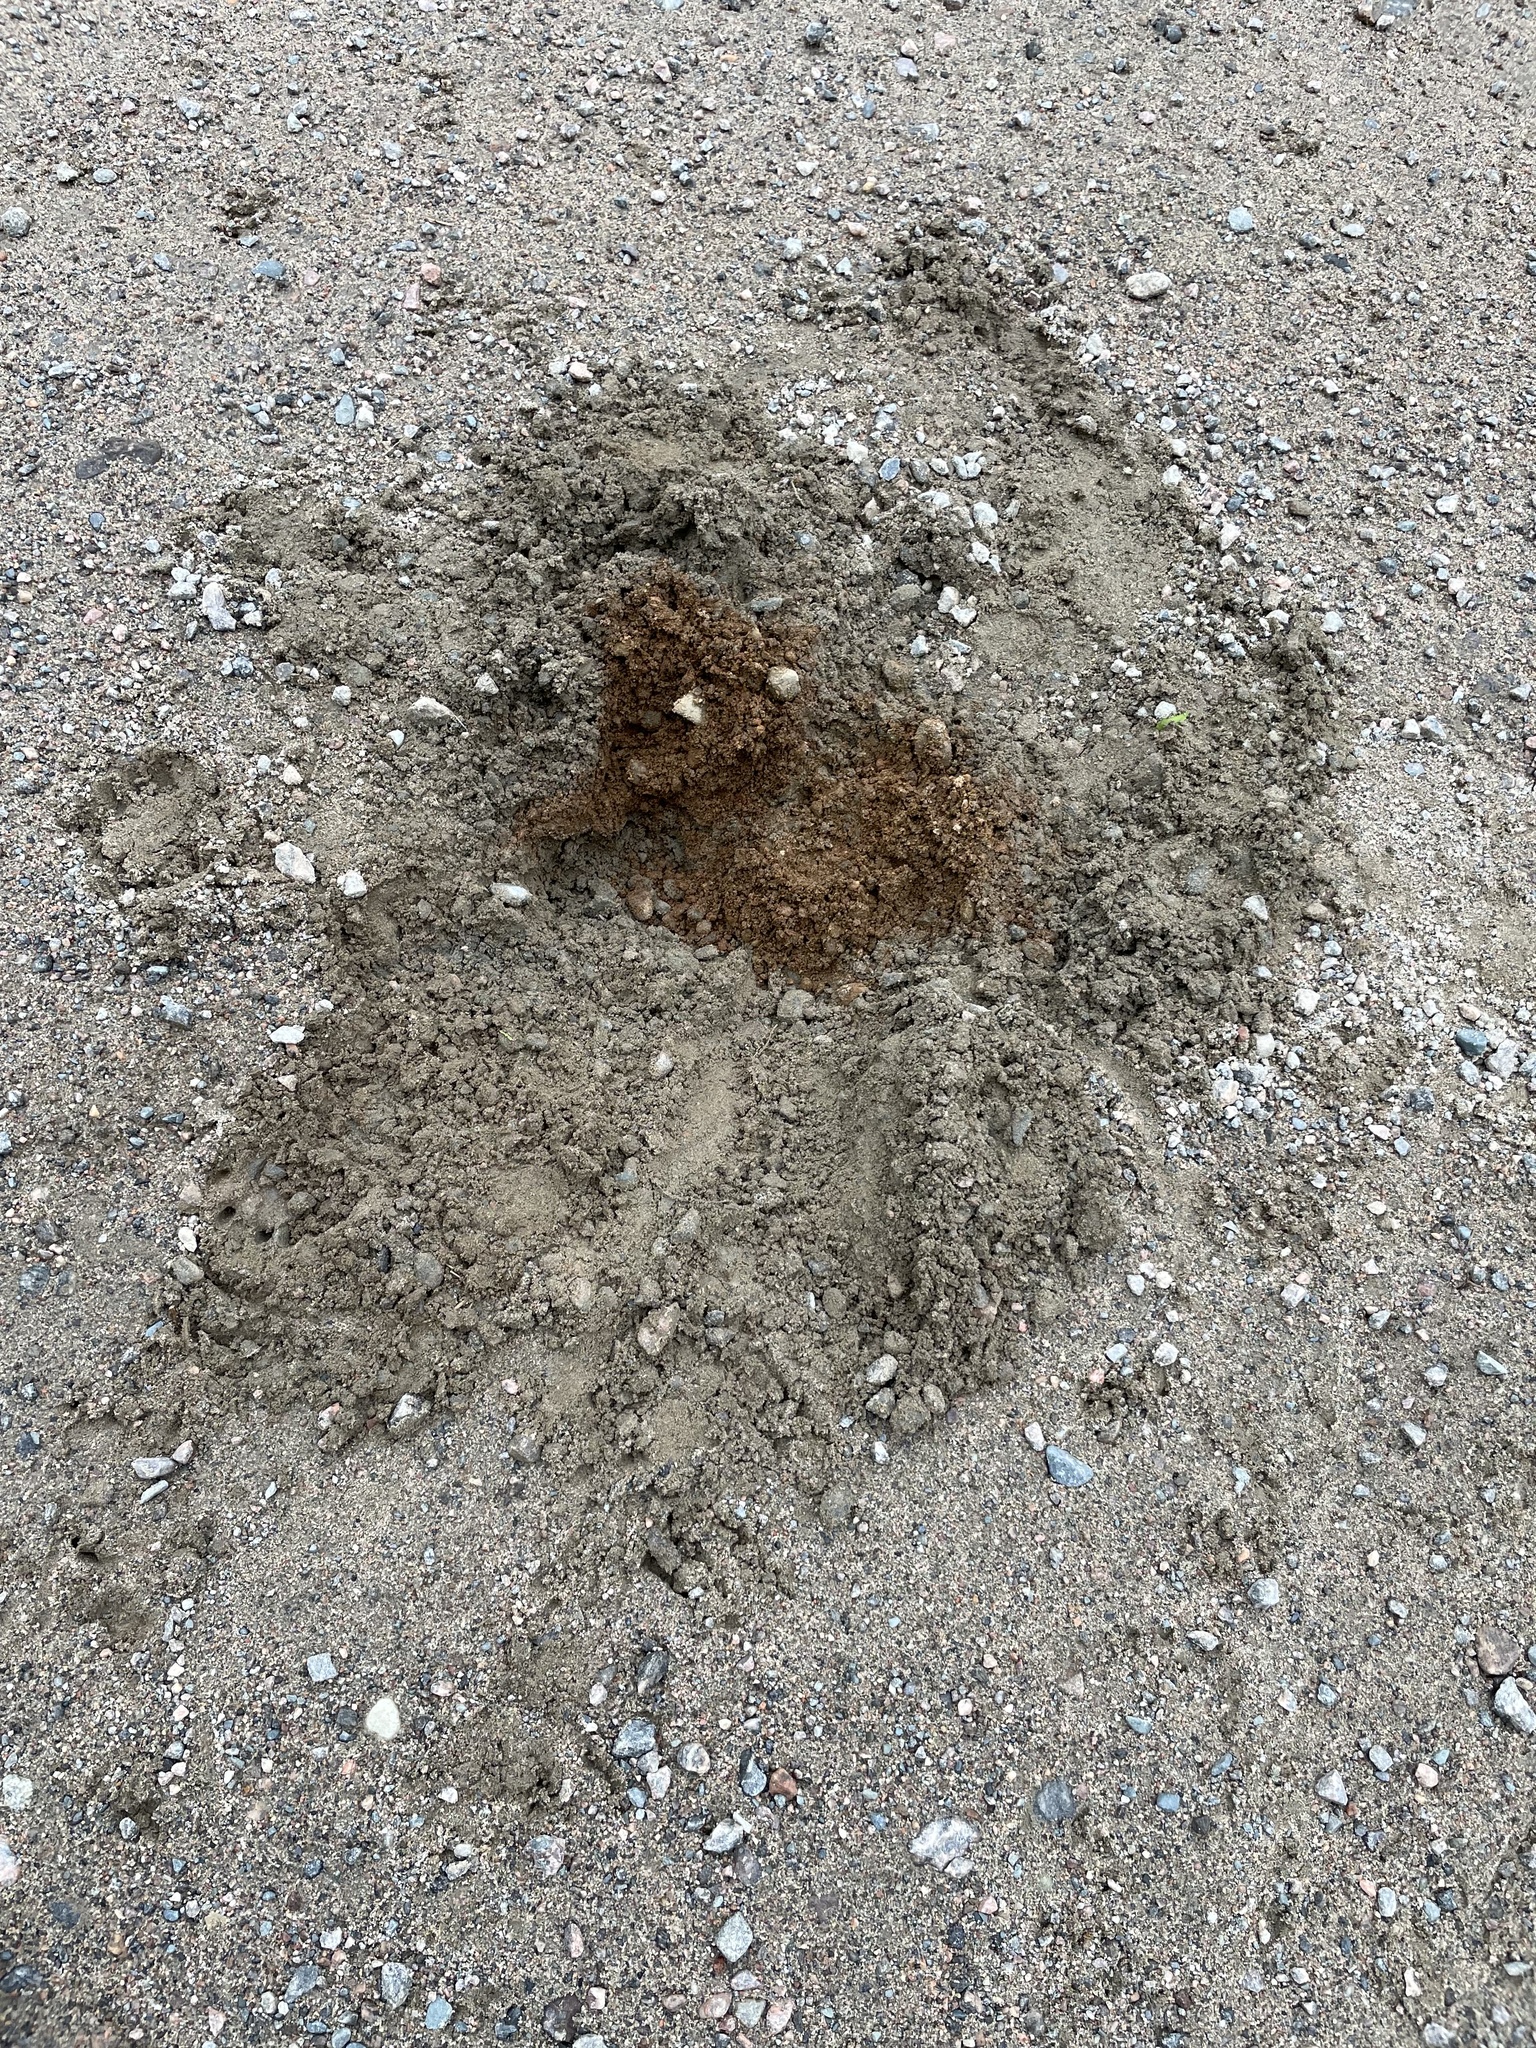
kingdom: Animalia
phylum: Chordata
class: Testudines
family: Chelydridae
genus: Chelydra
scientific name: Chelydra serpentina
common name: Common snapping turtle
